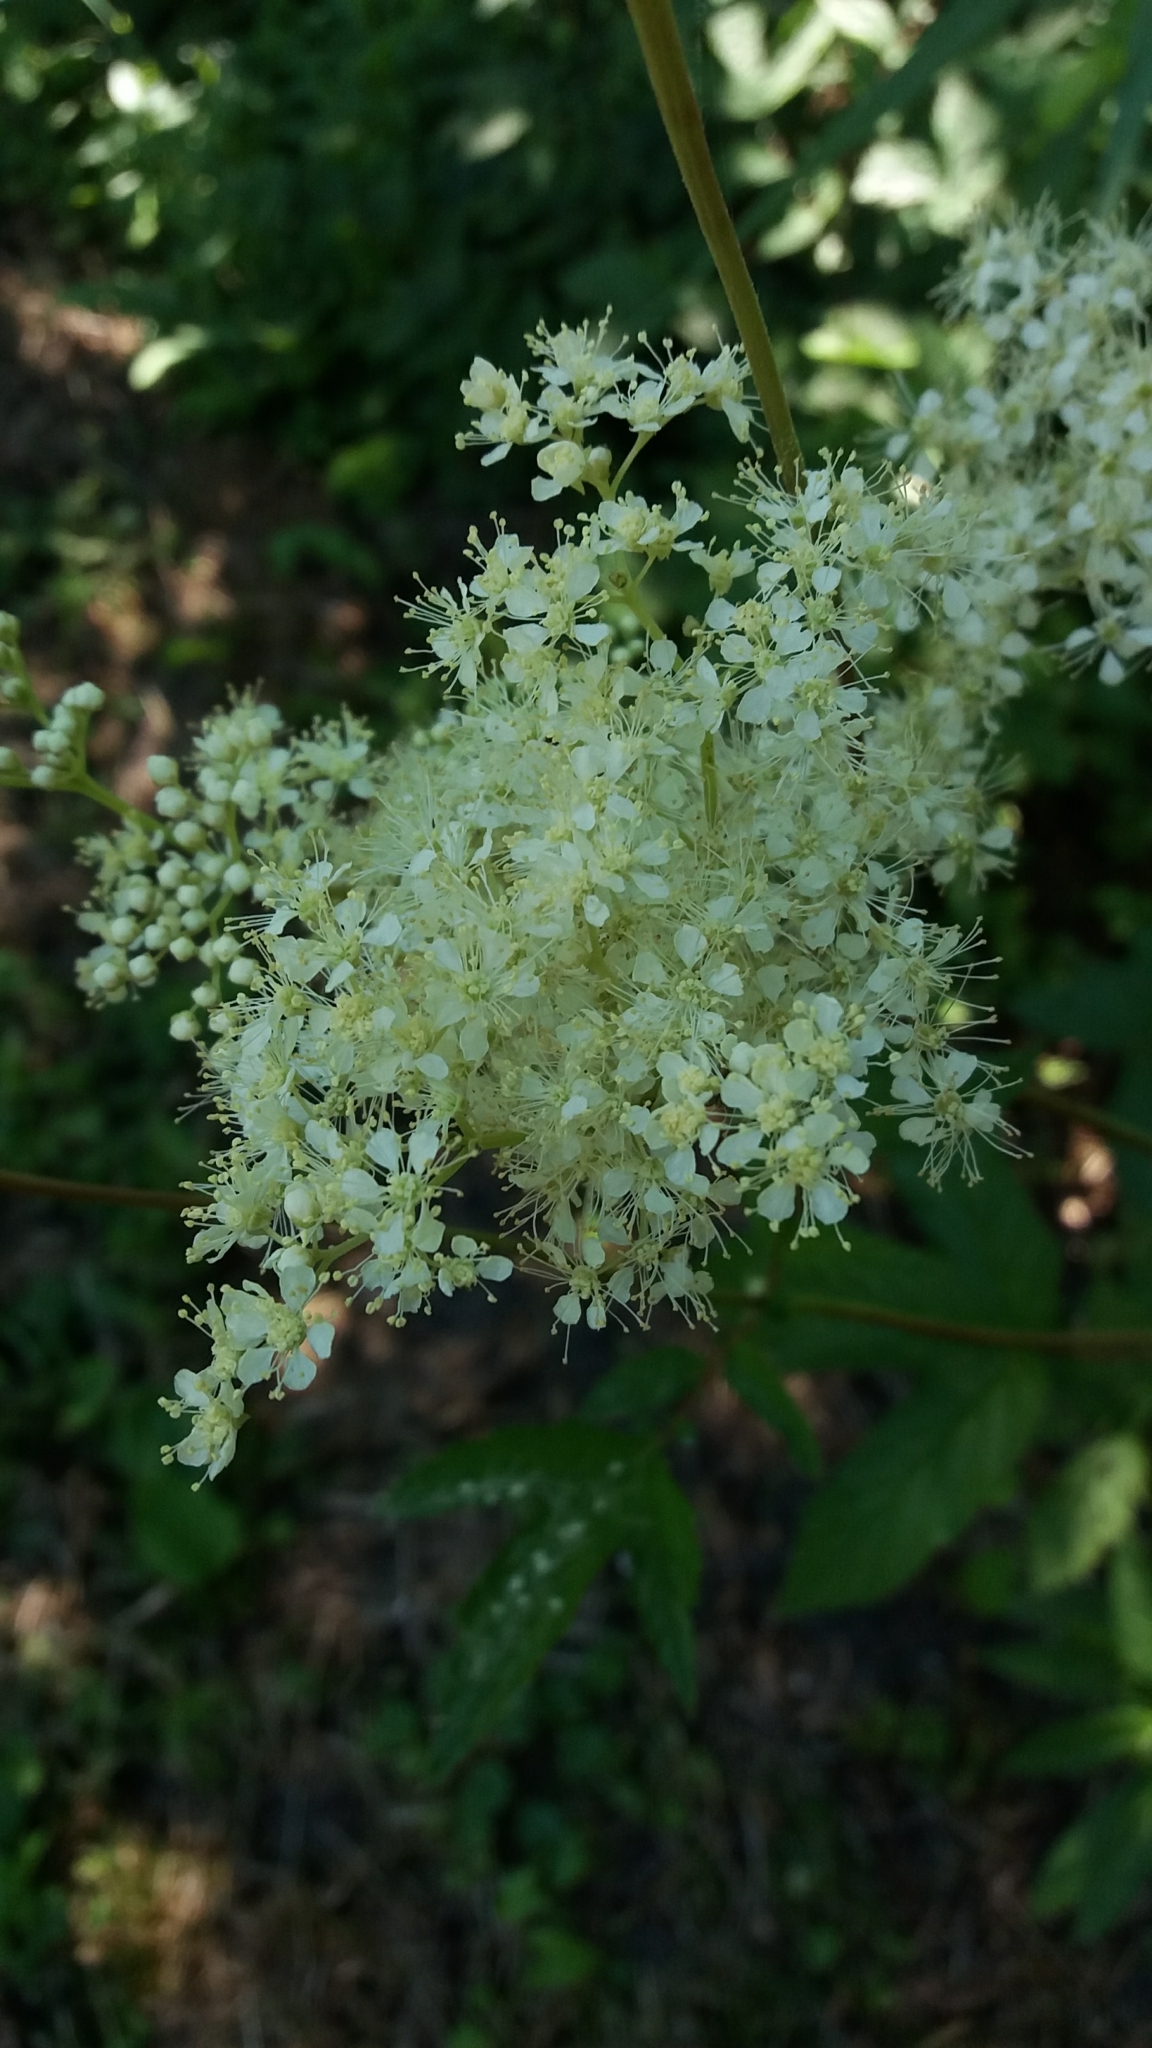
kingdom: Plantae
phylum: Tracheophyta
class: Magnoliopsida
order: Rosales
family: Rosaceae
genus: Filipendula
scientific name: Filipendula ulmaria
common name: Meadowsweet
